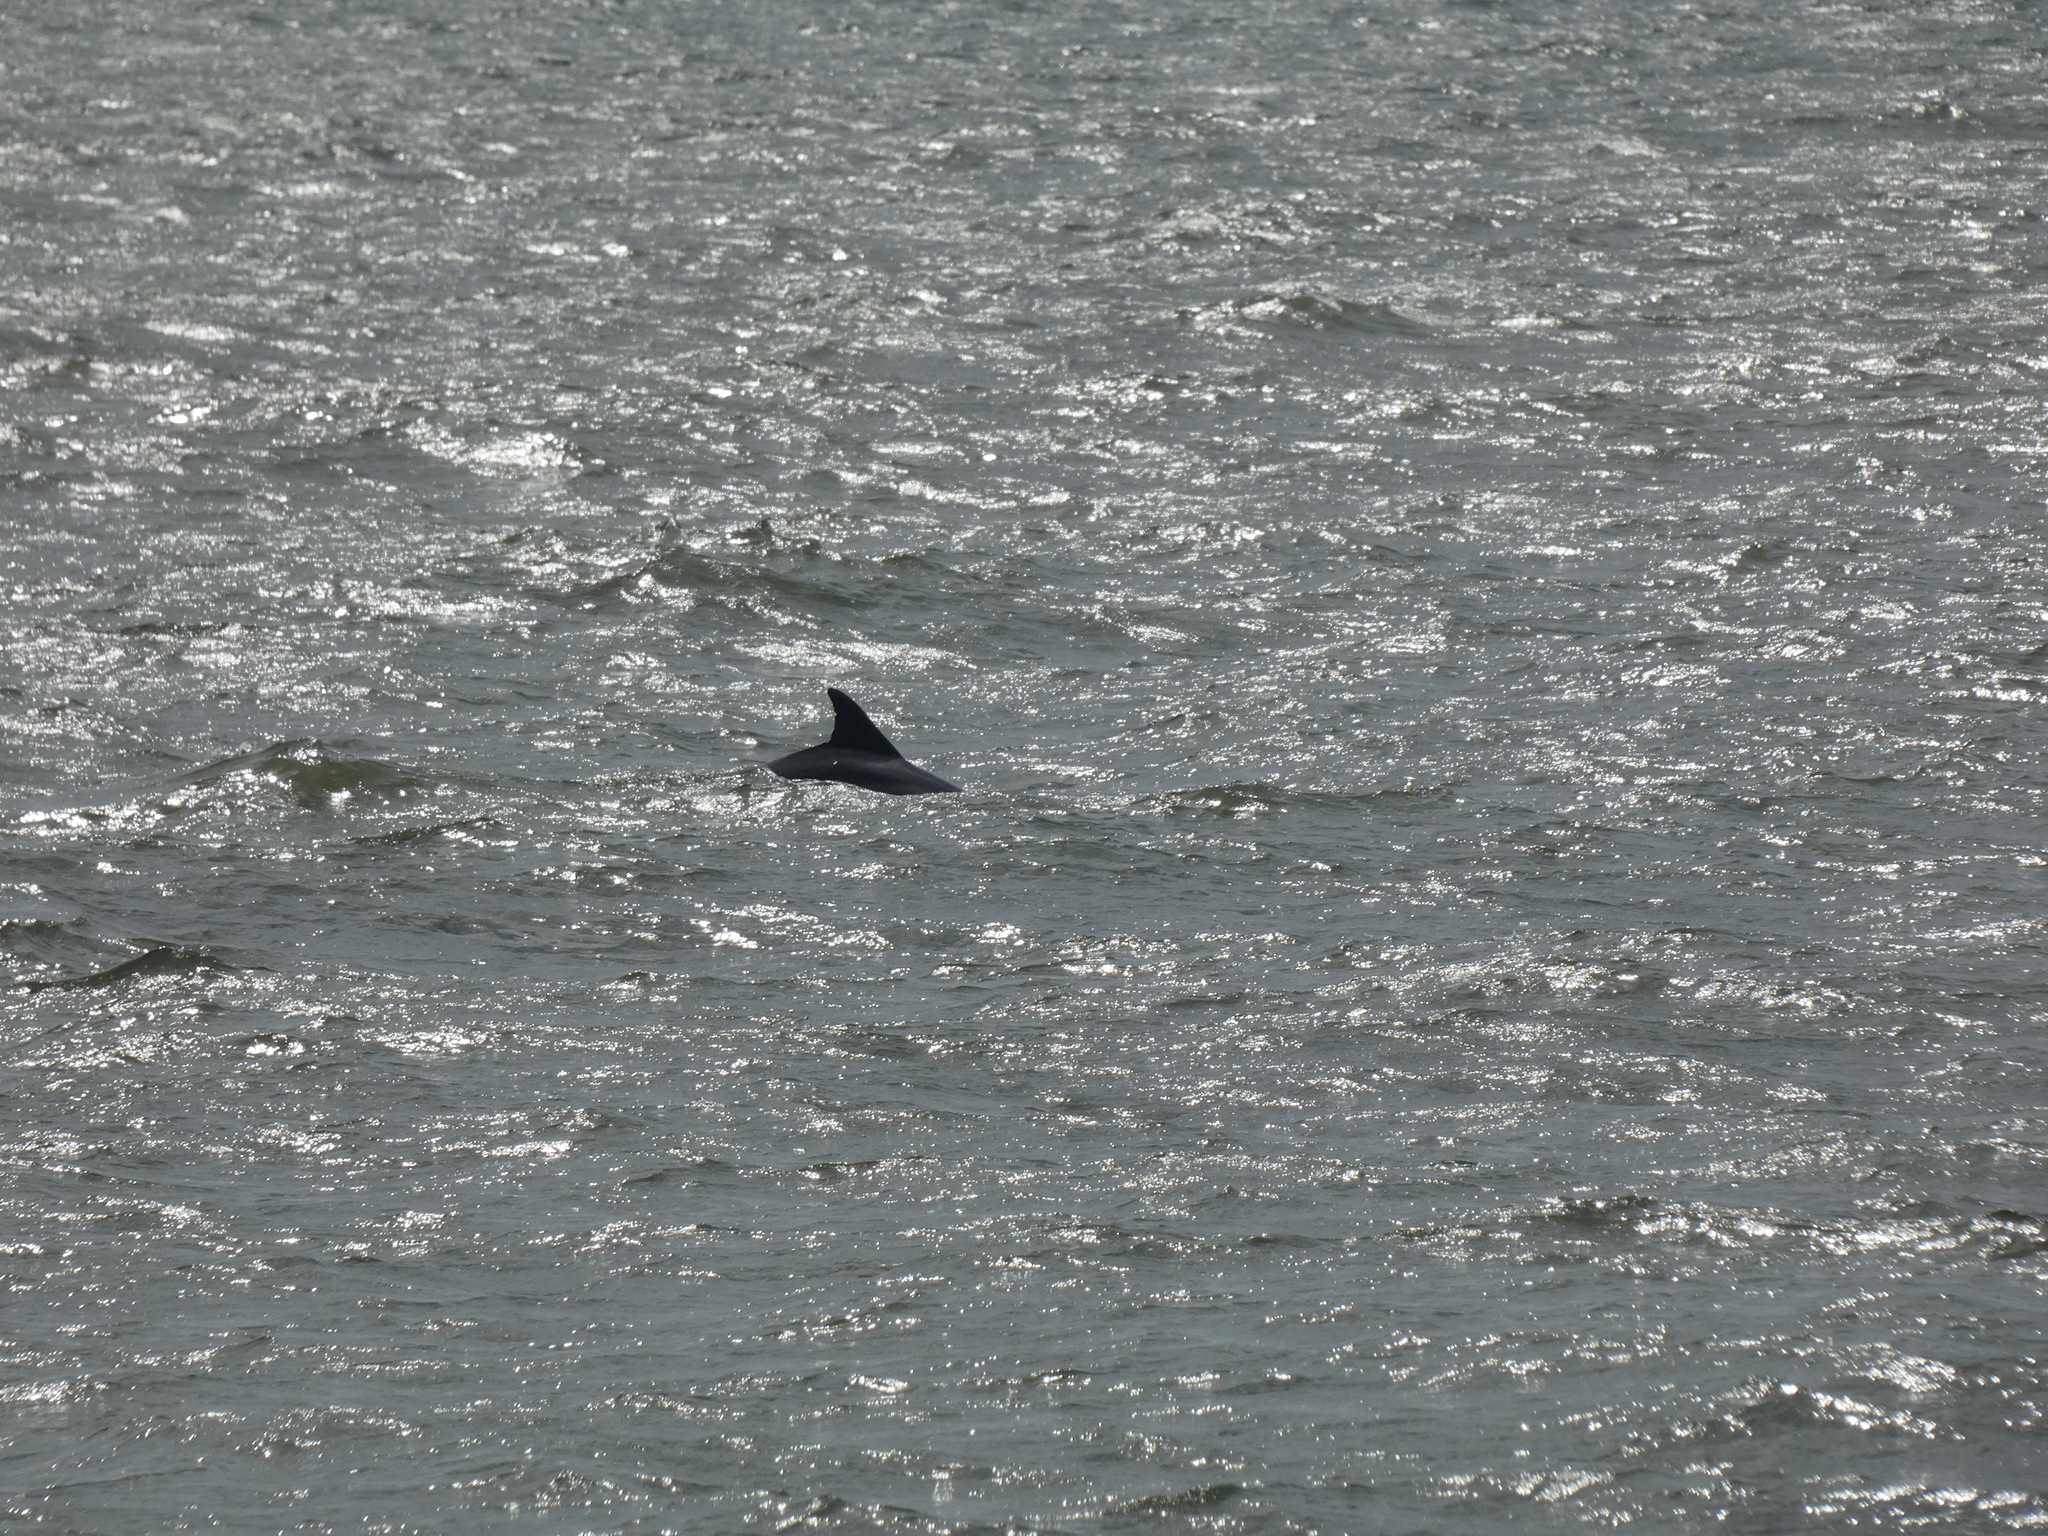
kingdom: Animalia
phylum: Chordata
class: Mammalia
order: Cetacea
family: Delphinidae
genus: Tursiops
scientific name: Tursiops truncatus
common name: Bottlenose dolphin
